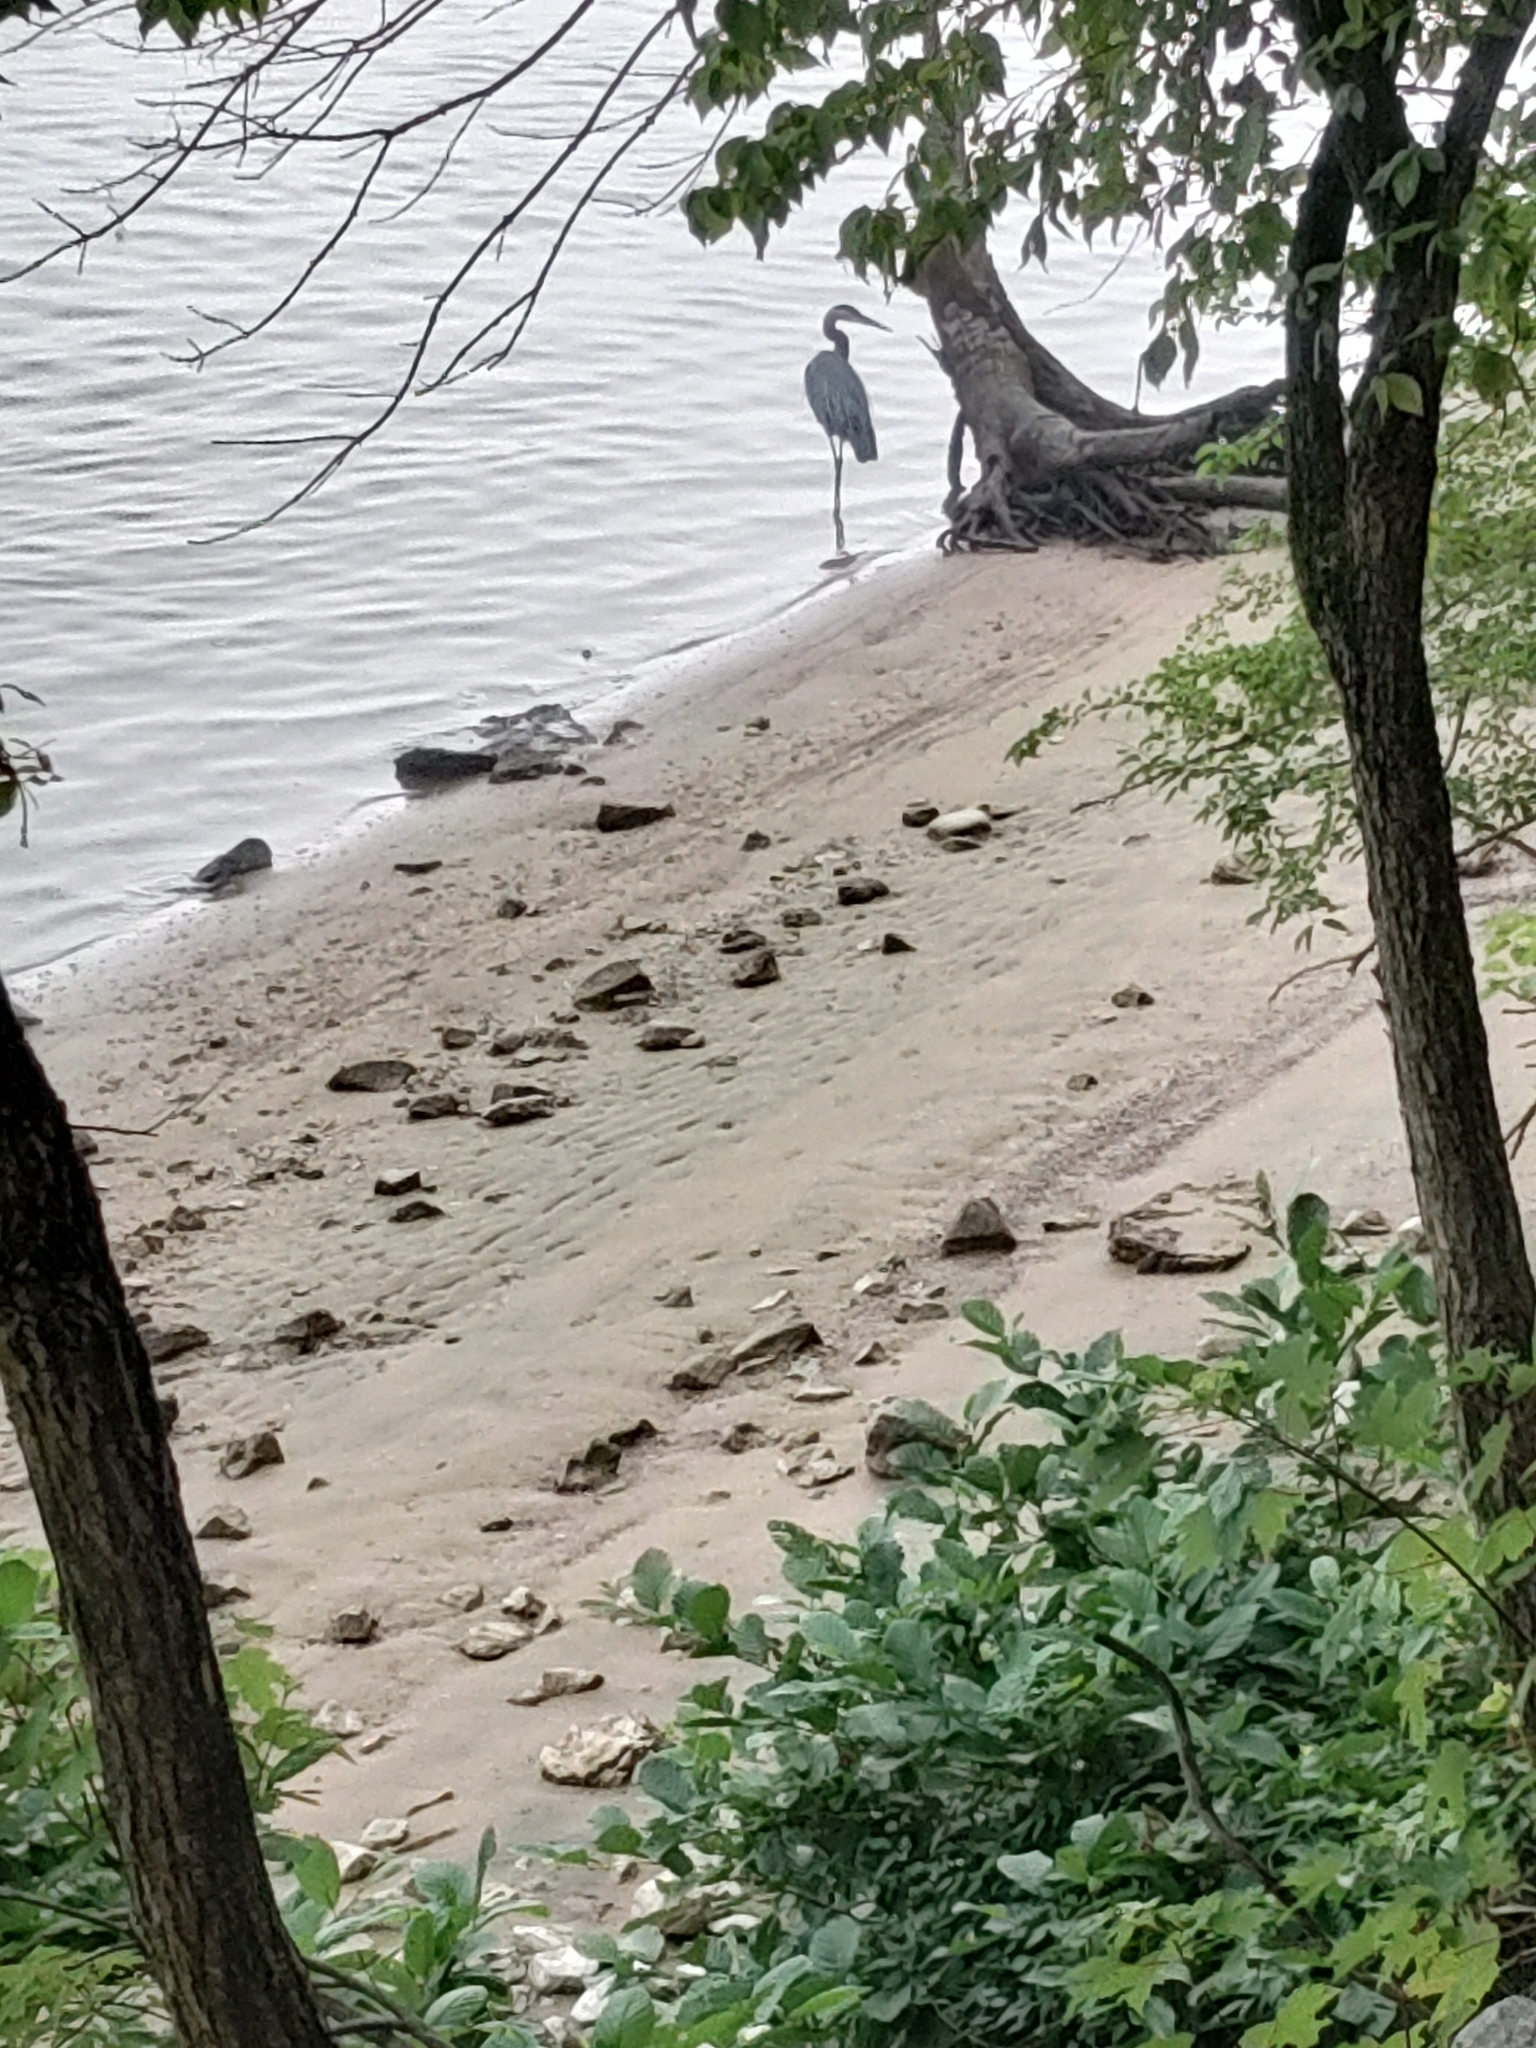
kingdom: Animalia
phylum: Chordata
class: Aves
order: Pelecaniformes
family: Ardeidae
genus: Ardea
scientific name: Ardea herodias
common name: Great blue heron
